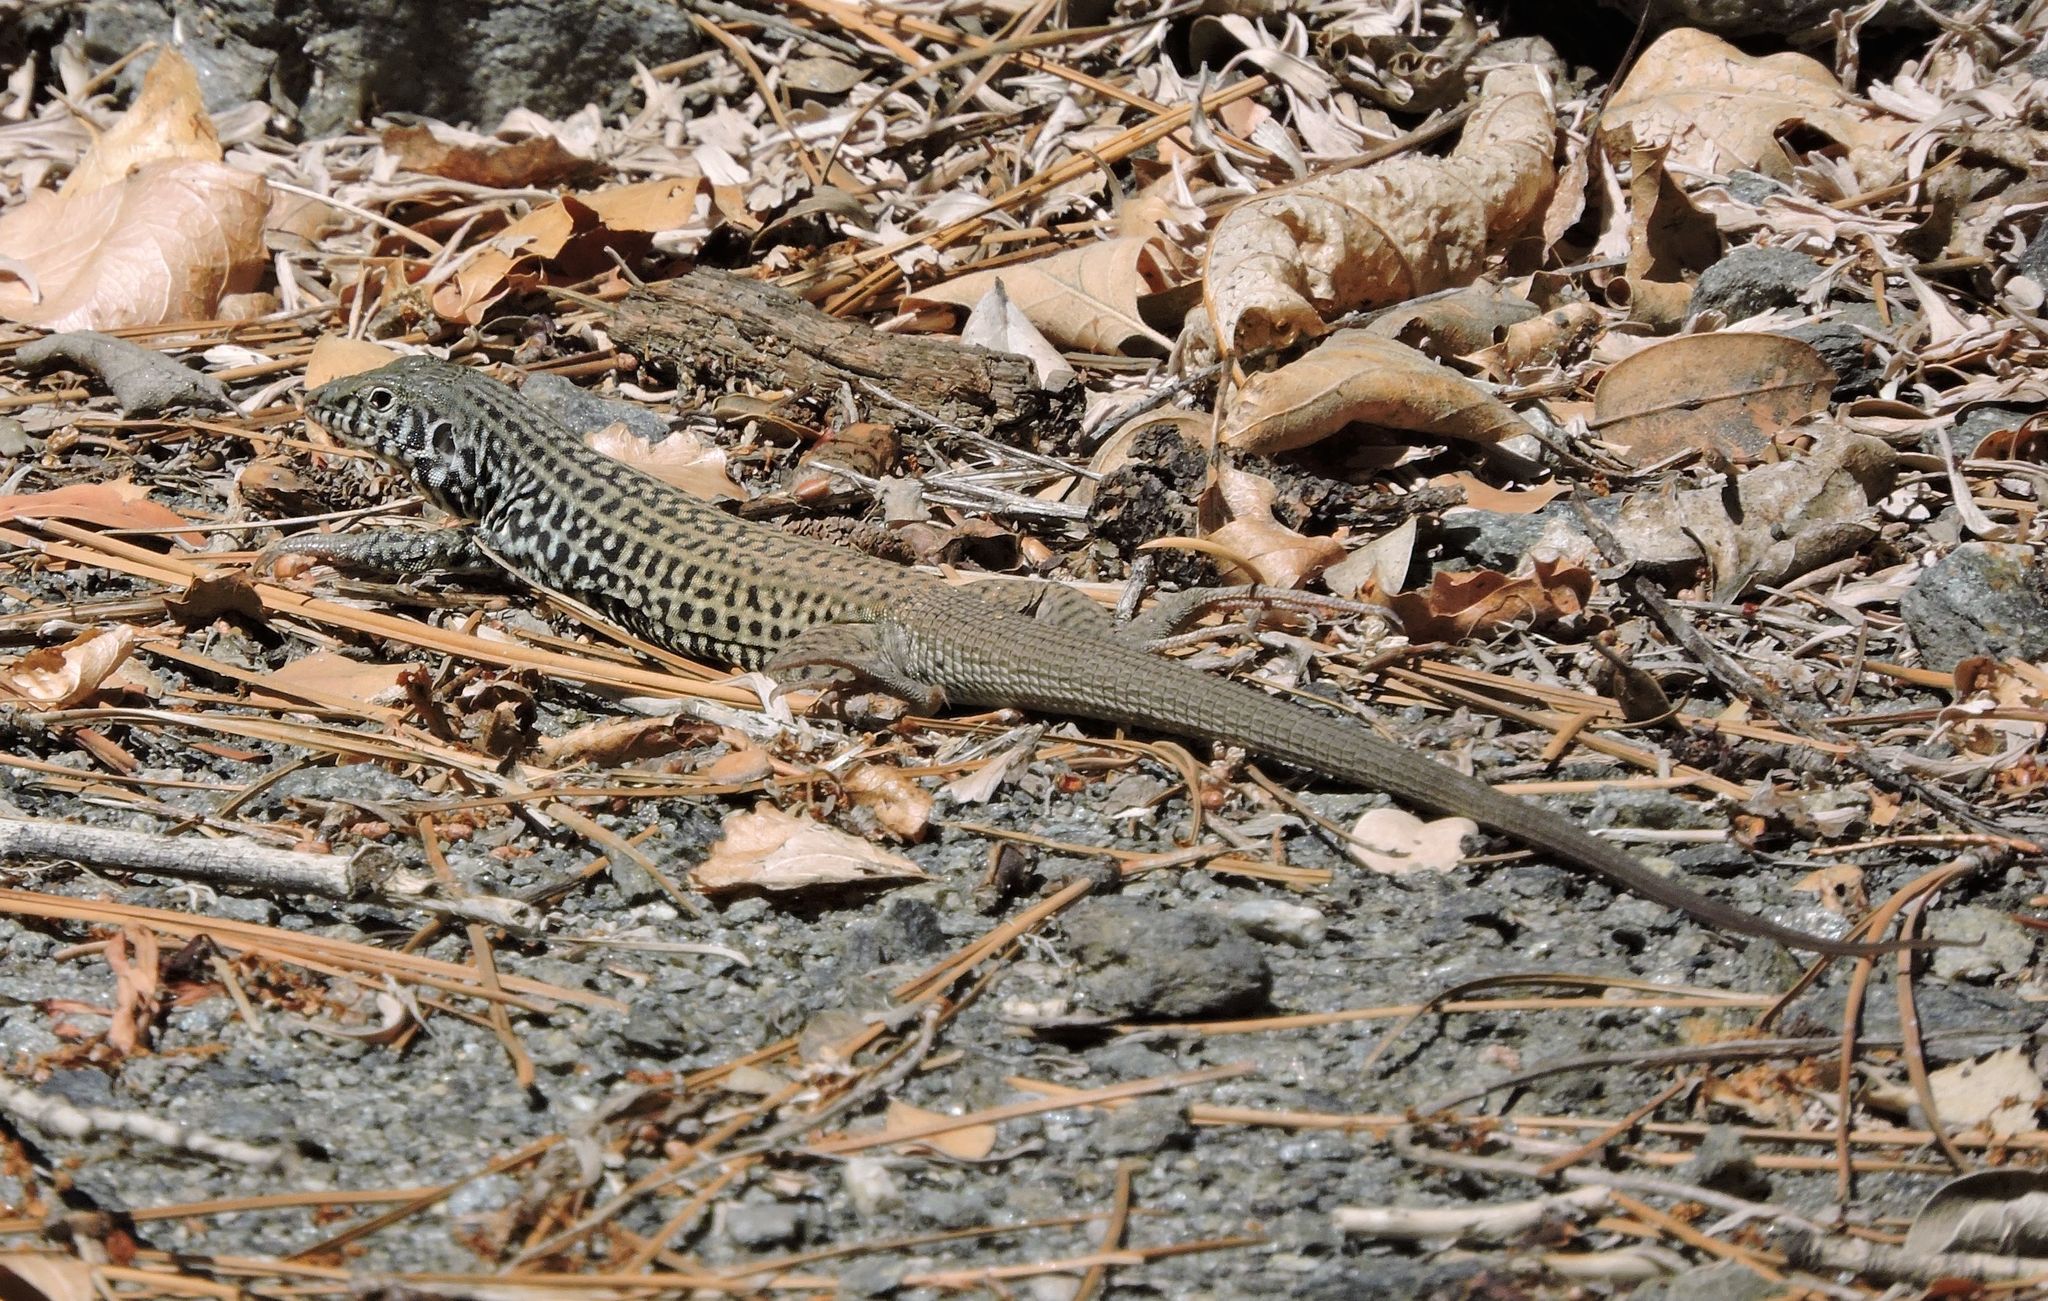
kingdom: Animalia
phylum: Chordata
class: Squamata
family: Teiidae
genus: Aspidoscelis
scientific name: Aspidoscelis tigris
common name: Tiger whiptail
